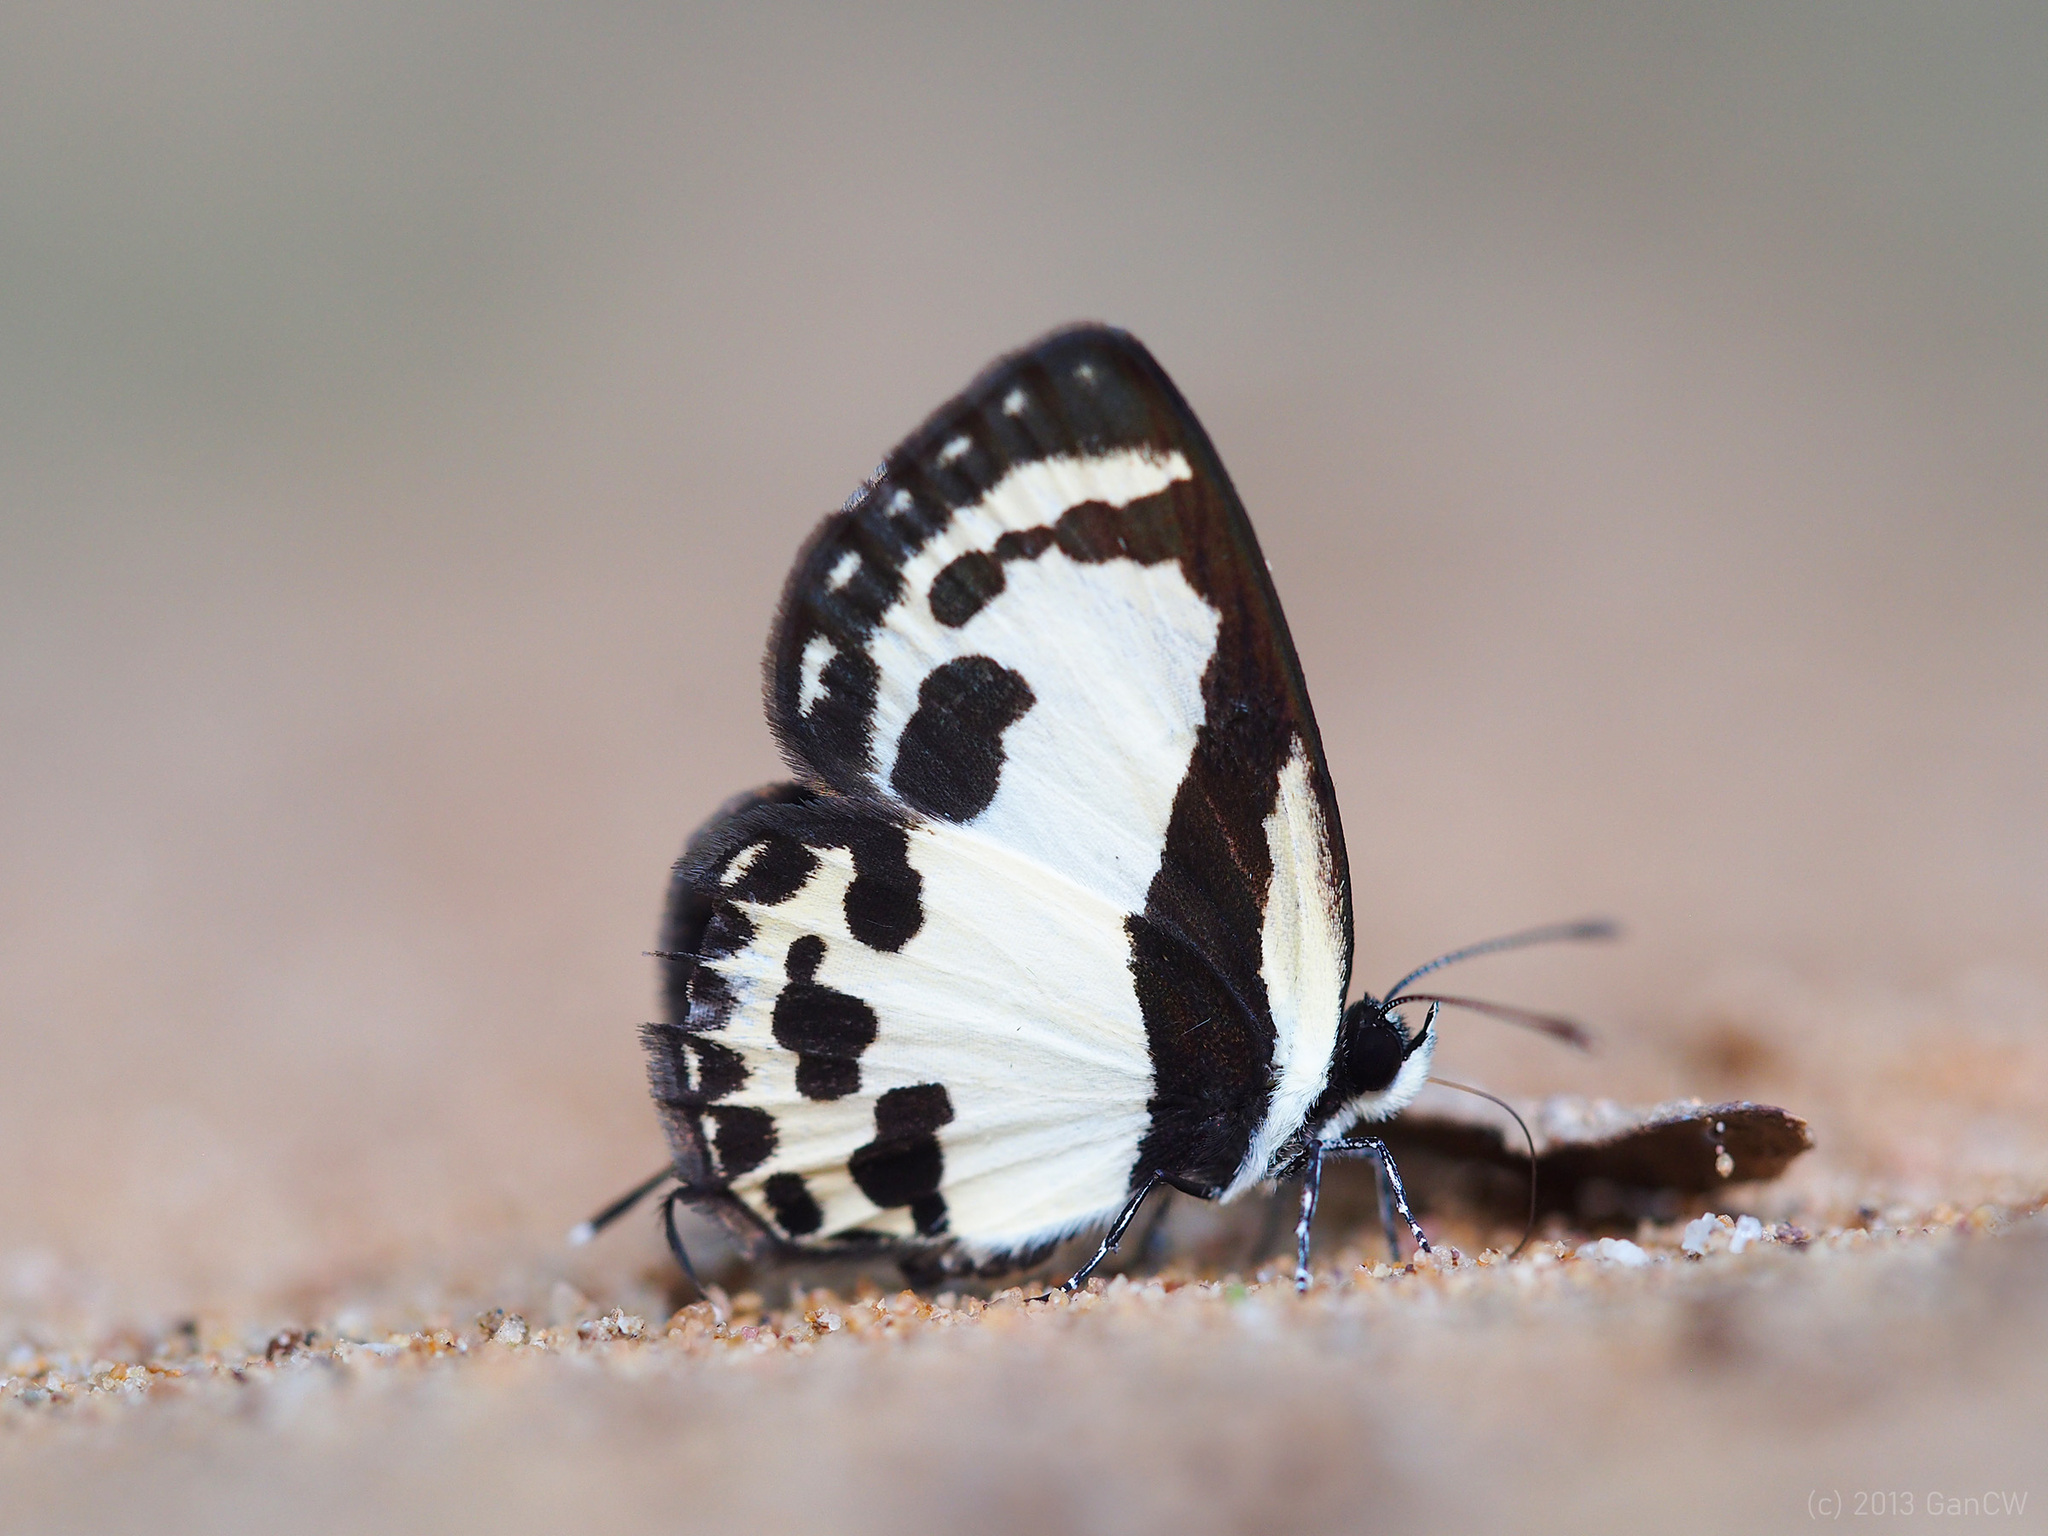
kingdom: Animalia
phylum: Arthropoda
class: Insecta
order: Lepidoptera
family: Lycaenidae
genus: Caleta
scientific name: Caleta roxus
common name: Straight pierrot
